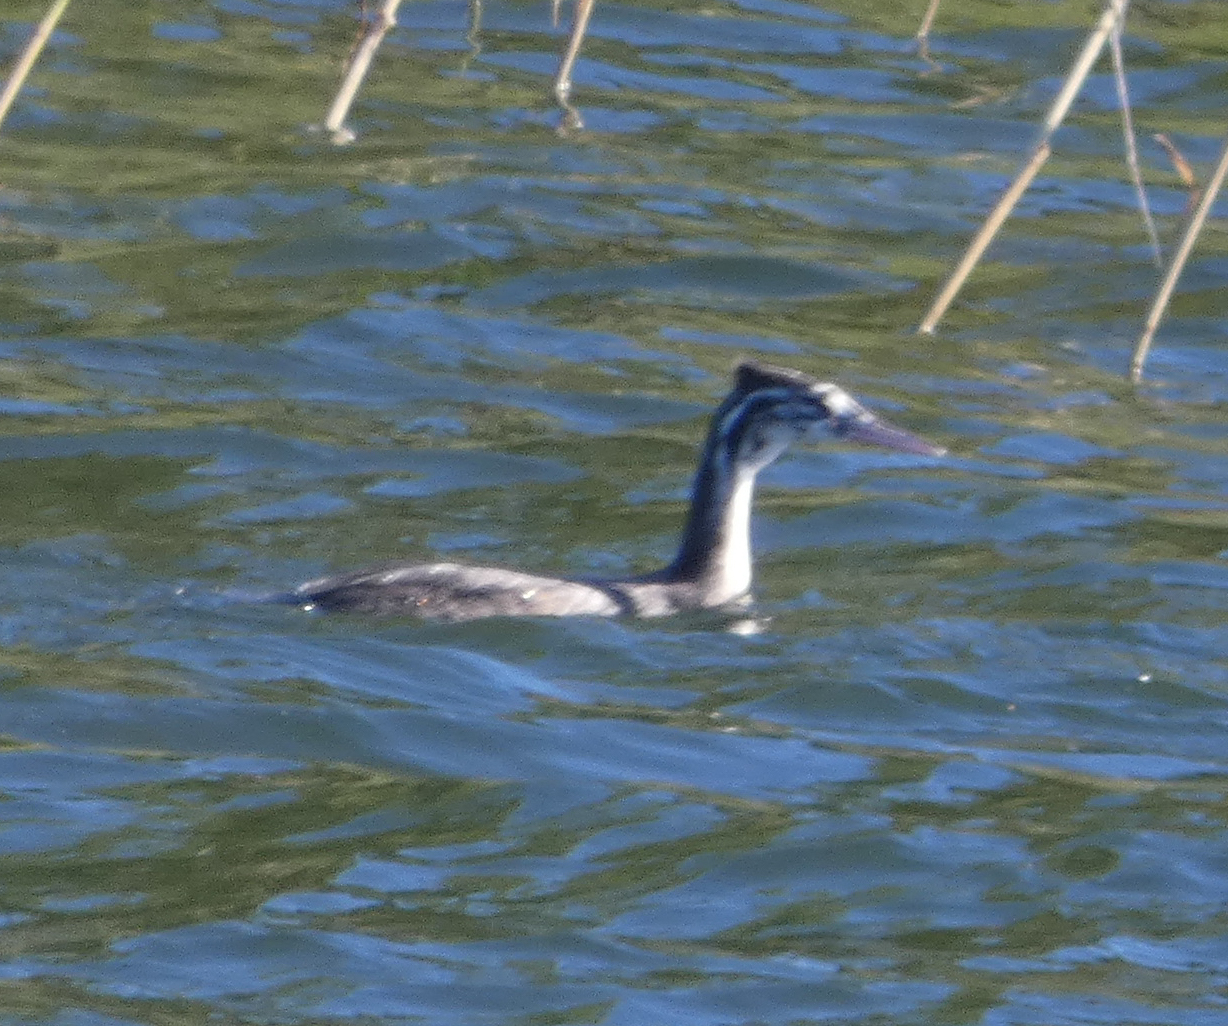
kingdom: Animalia
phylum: Chordata
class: Aves
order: Podicipediformes
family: Podicipedidae
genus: Podiceps
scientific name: Podiceps cristatus
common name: Great crested grebe
